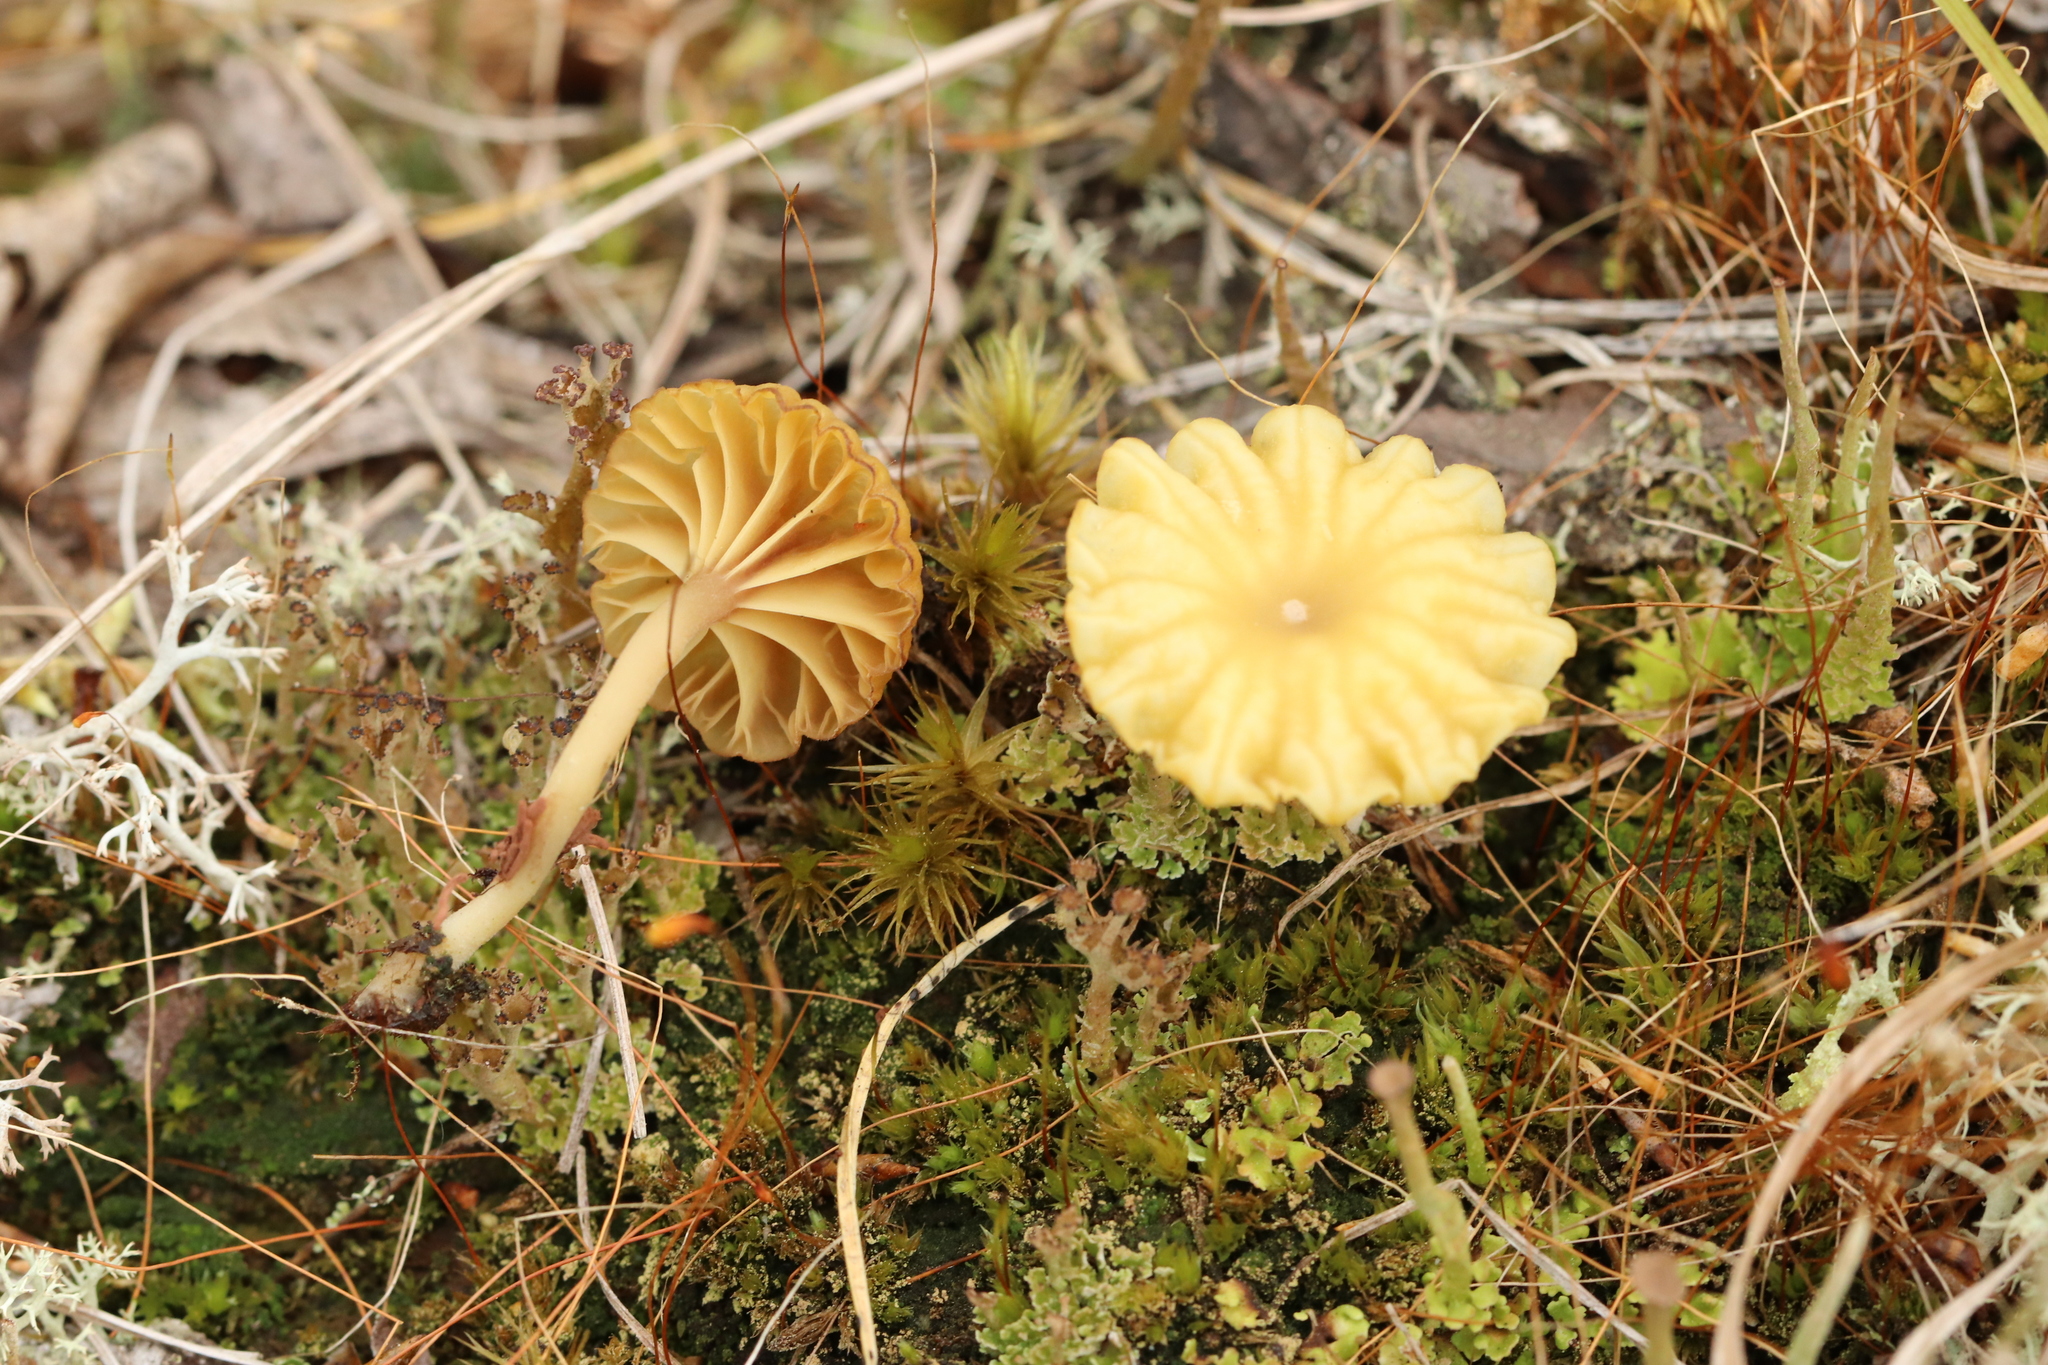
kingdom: Fungi
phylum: Basidiomycota
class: Agaricomycetes
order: Agaricales
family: Hygrophoraceae
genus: Lichenomphalia
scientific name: Lichenomphalia
